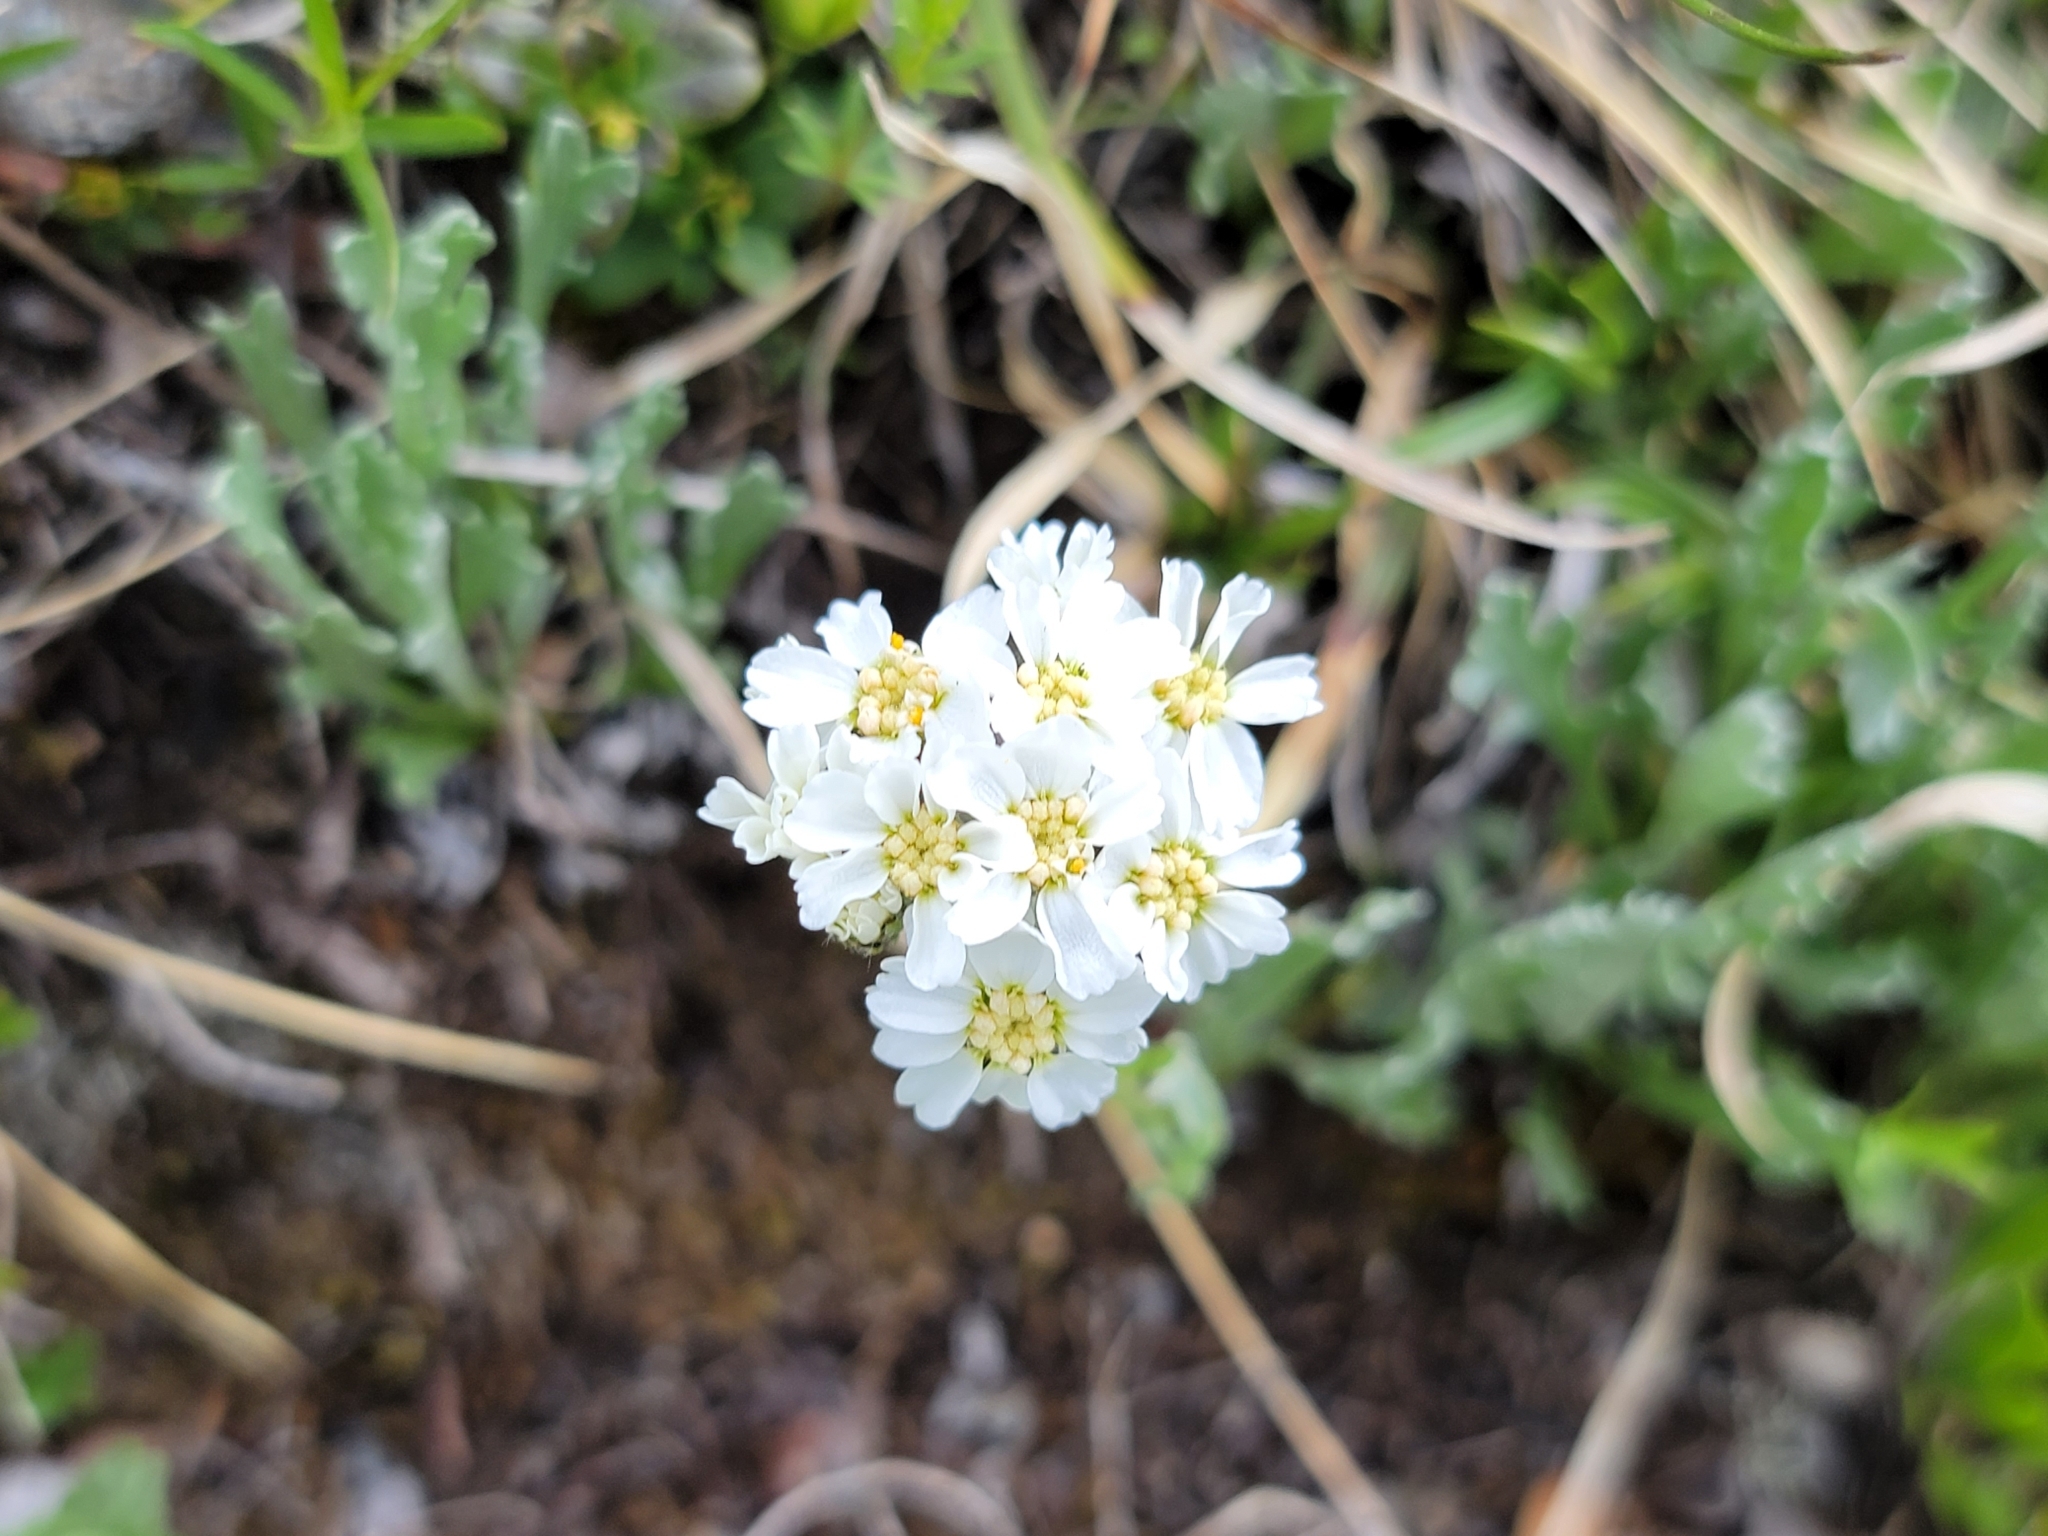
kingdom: Plantae
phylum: Tracheophyta
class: Magnoliopsida
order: Asterales
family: Asteraceae
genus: Achillea
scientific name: Achillea clavennae
